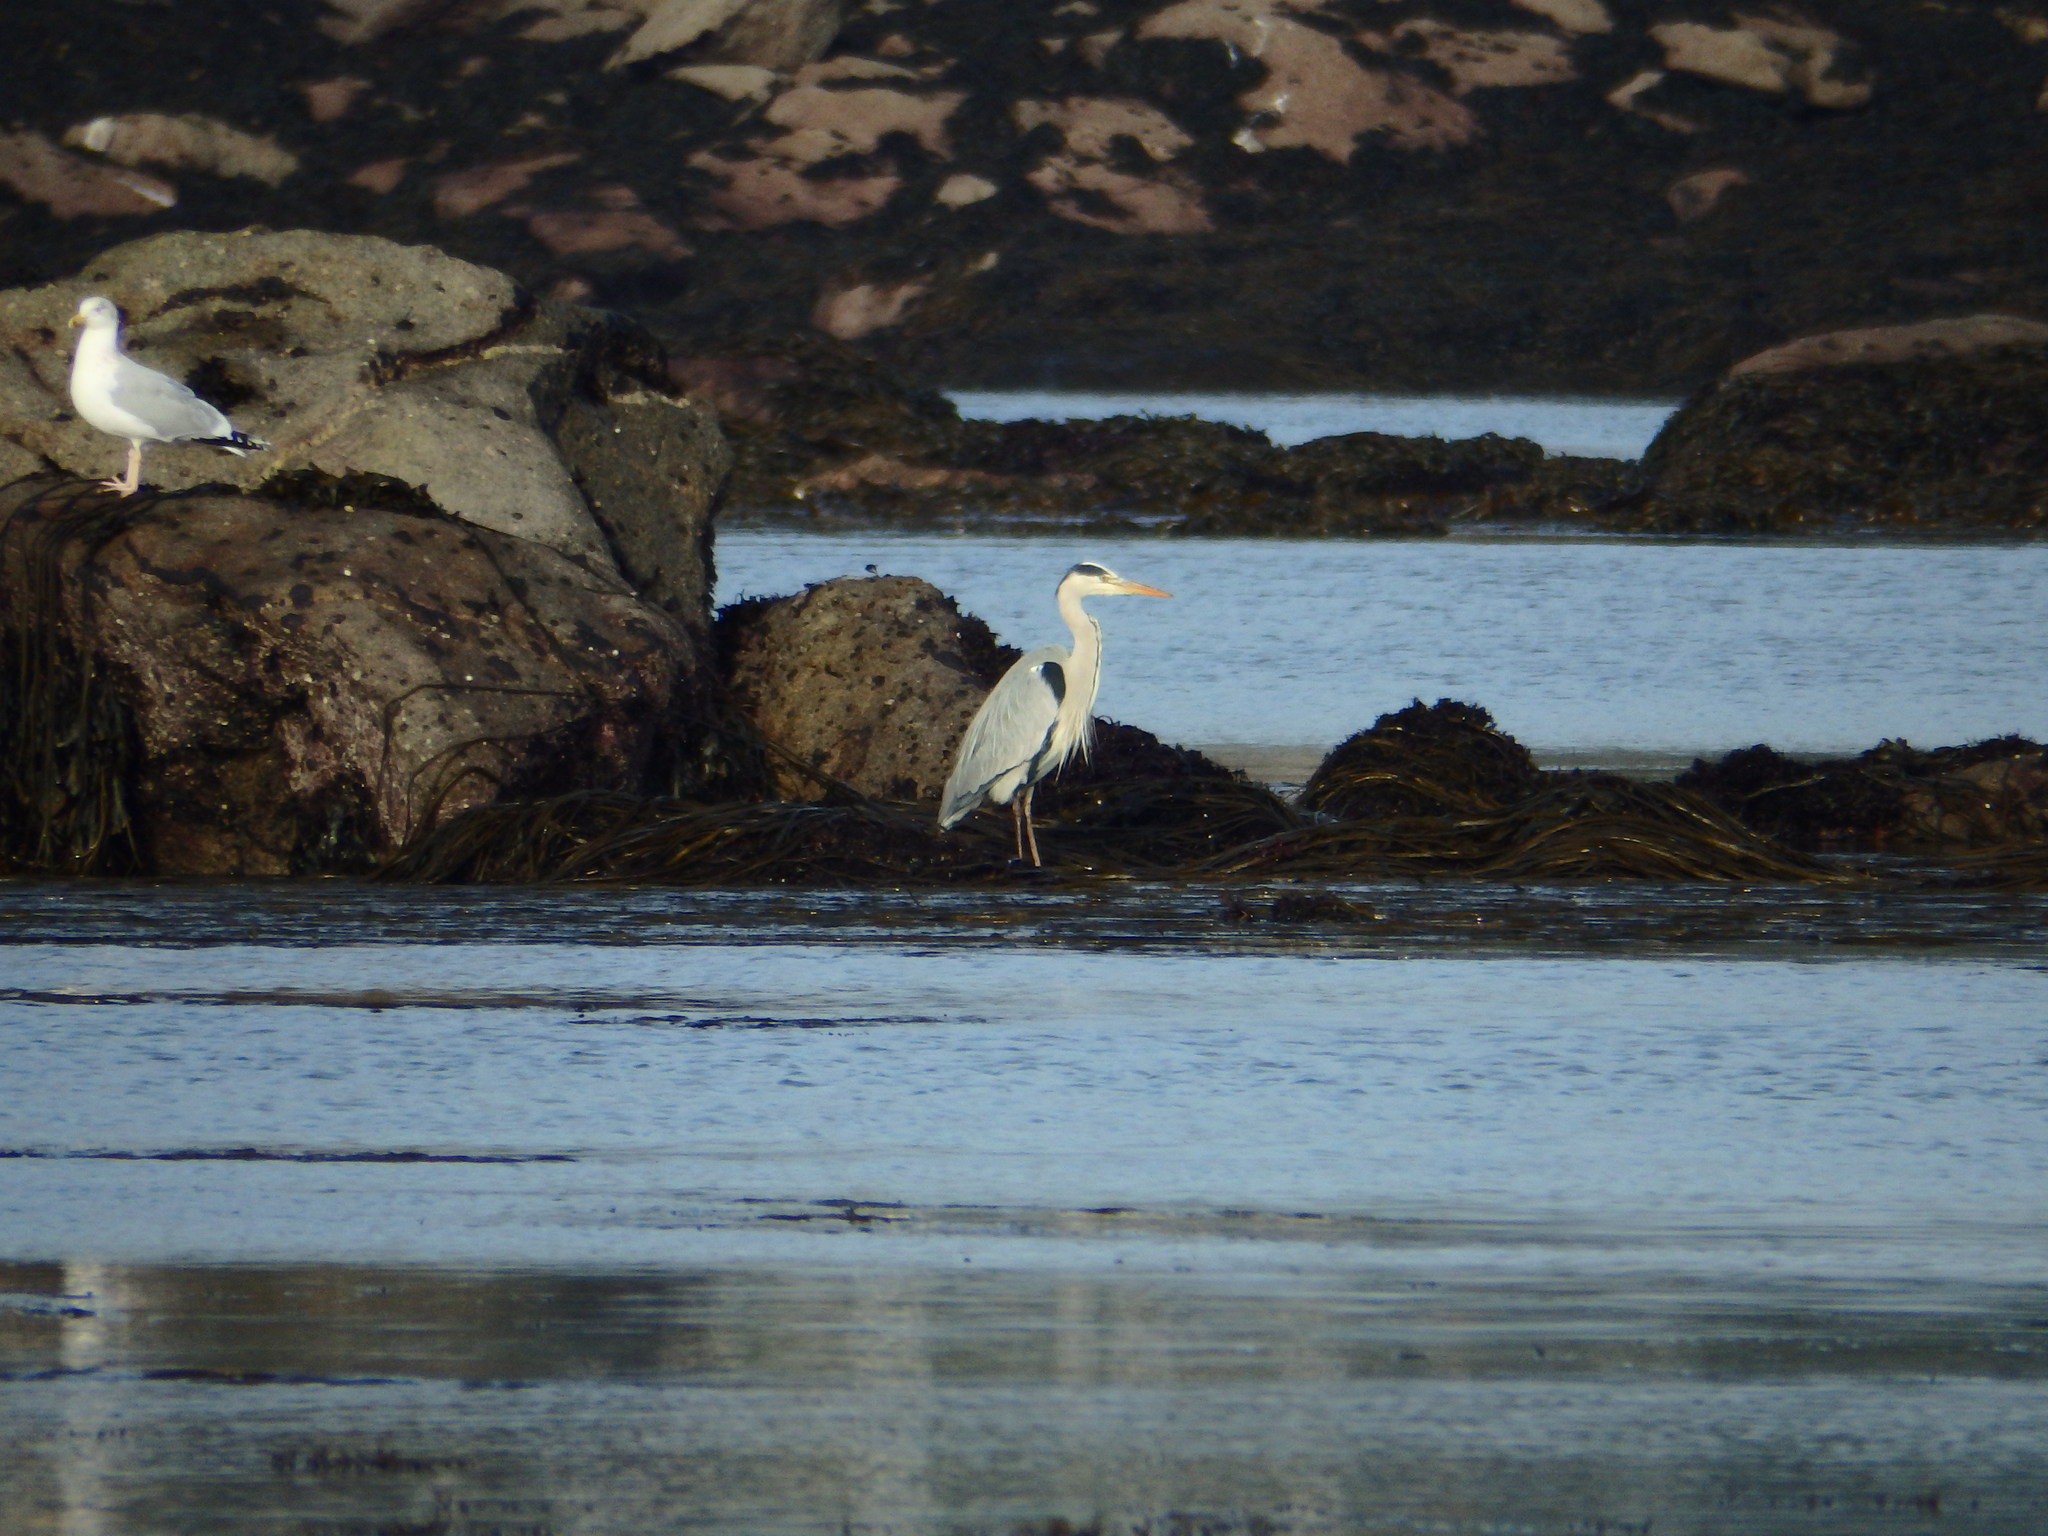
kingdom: Animalia
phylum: Chordata
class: Aves
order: Pelecaniformes
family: Ardeidae
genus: Ardea
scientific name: Ardea cinerea
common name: Grey heron
